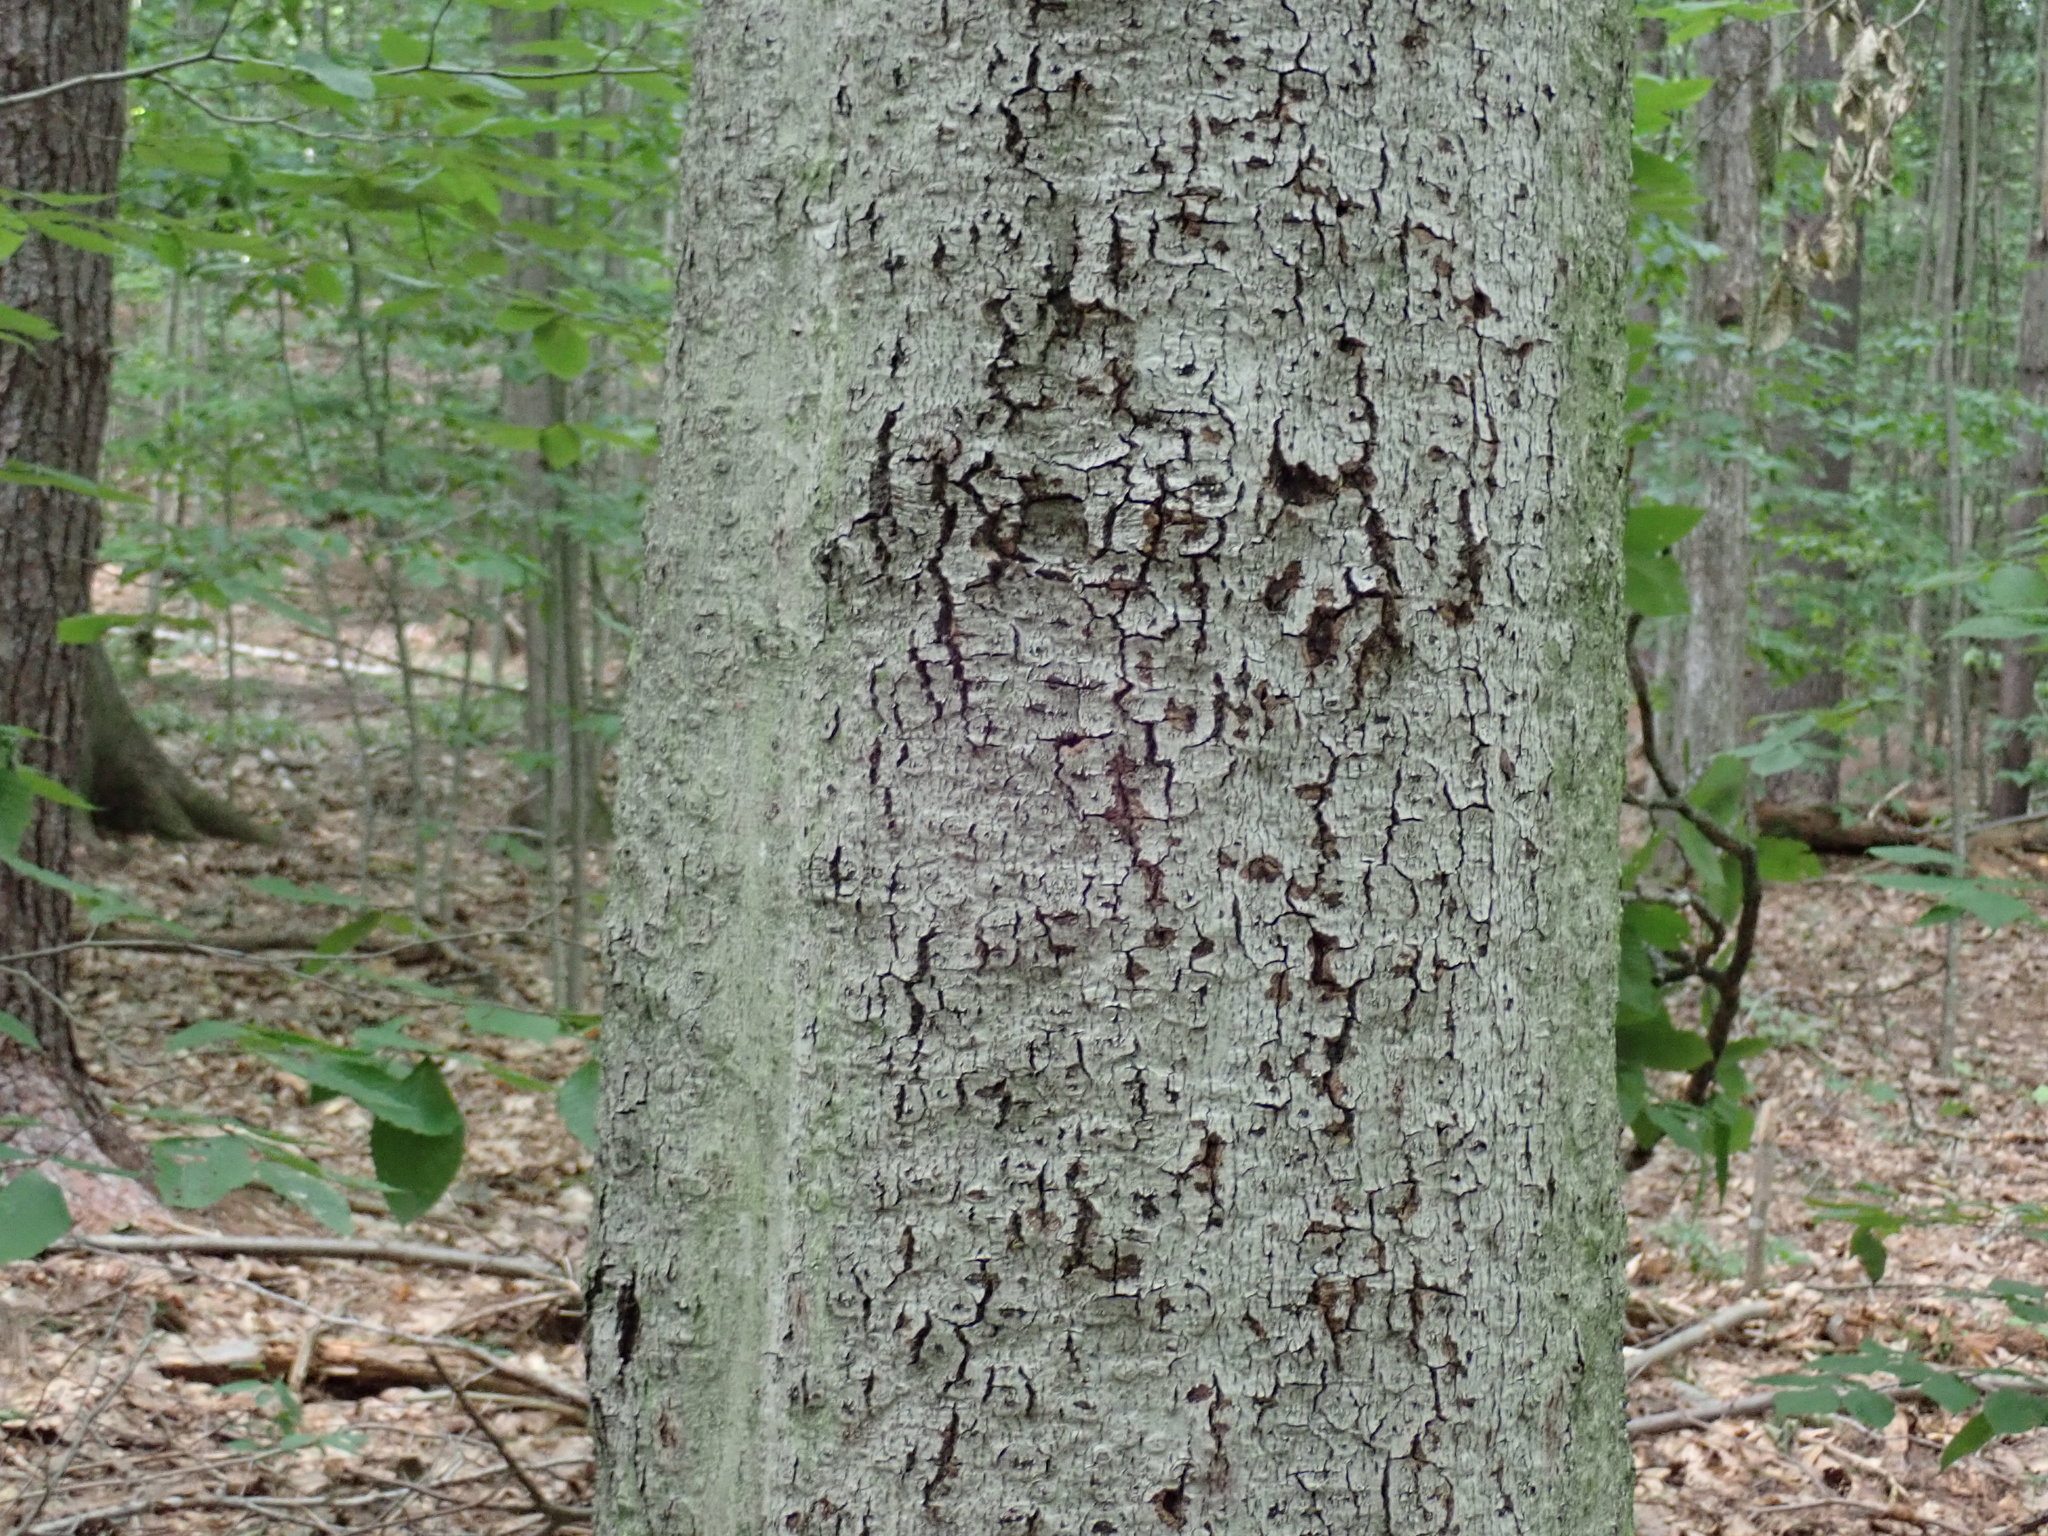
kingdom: Fungi
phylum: Ascomycota
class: Sordariomycetes
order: Hypocreales
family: Nectriaceae
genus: Neonectria
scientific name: Neonectria faginata
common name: Beech bark canker
